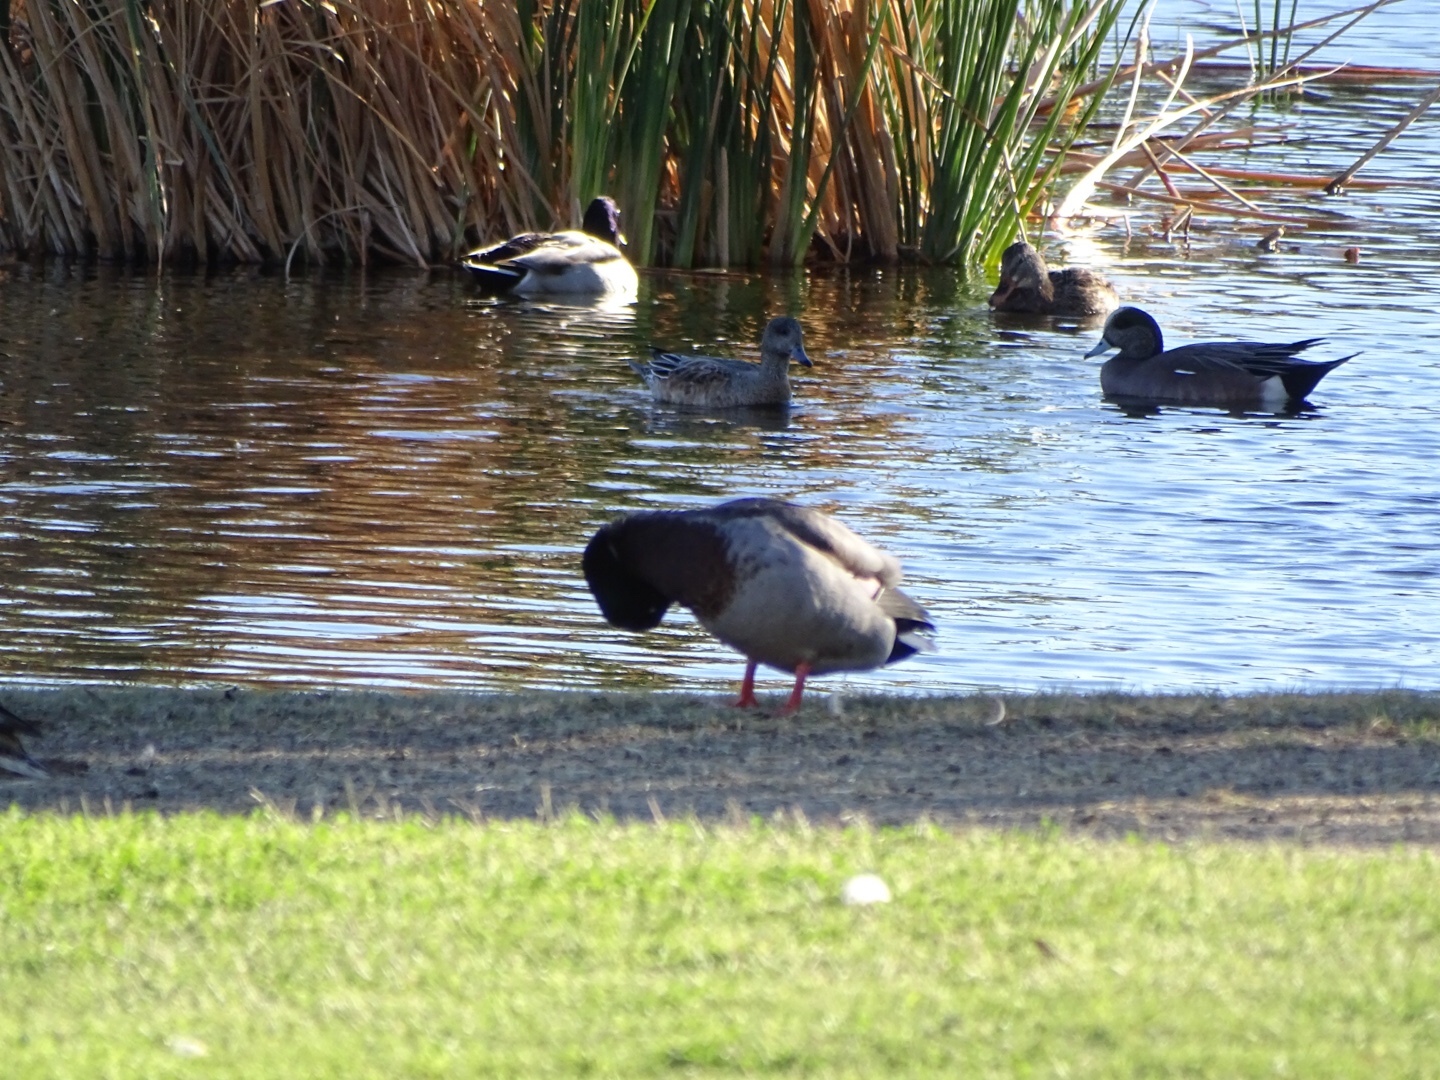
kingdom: Animalia
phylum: Chordata
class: Aves
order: Anseriformes
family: Anatidae
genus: Anas
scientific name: Anas platyrhynchos
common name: Mallard
